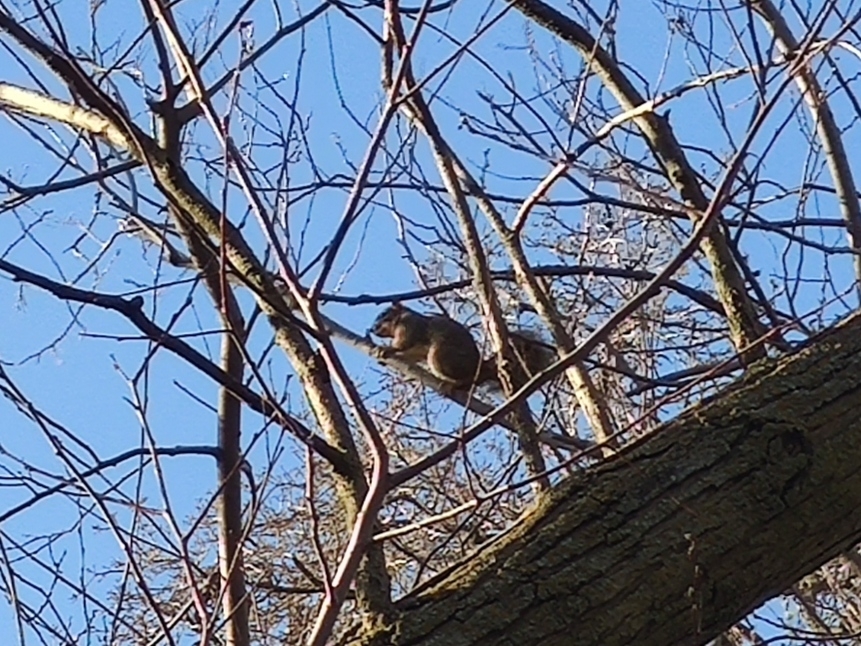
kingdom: Animalia
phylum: Chordata
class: Mammalia
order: Rodentia
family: Sciuridae
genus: Sciurus
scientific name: Sciurus niger
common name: Fox squirrel
